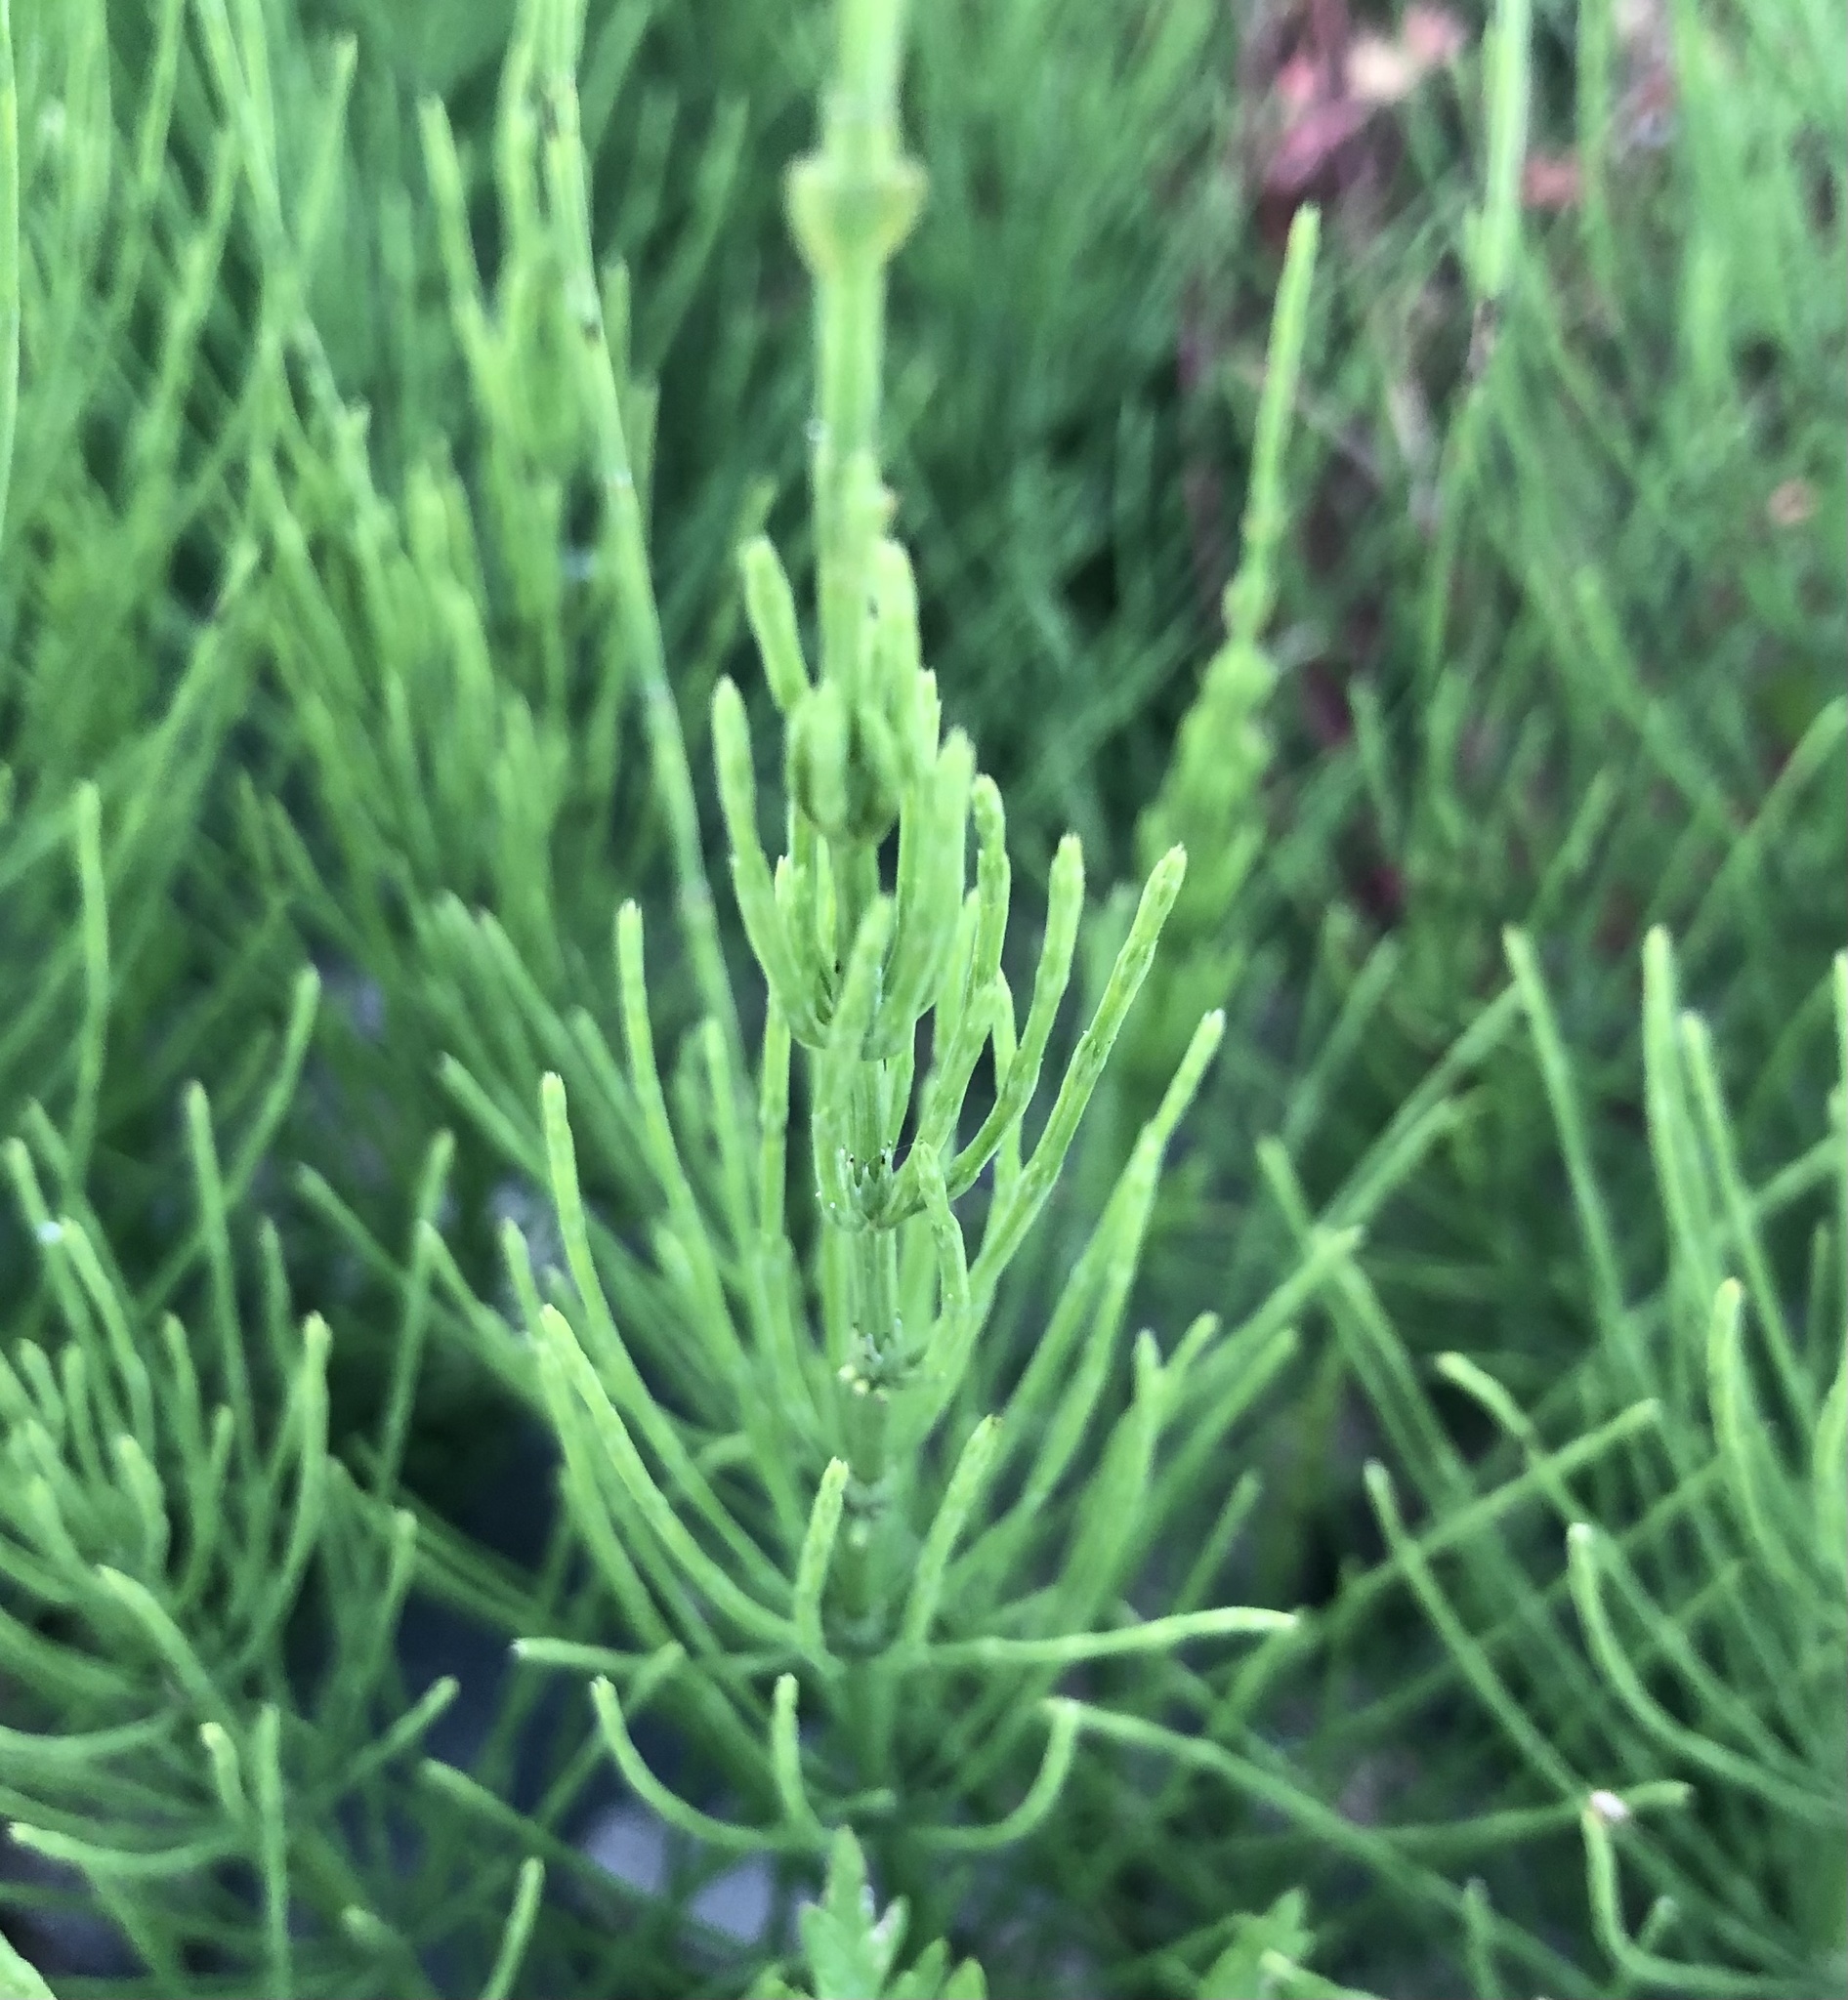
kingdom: Plantae
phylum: Tracheophyta
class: Polypodiopsida
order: Equisetales
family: Equisetaceae
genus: Equisetum
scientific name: Equisetum arvense
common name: Field horsetail
